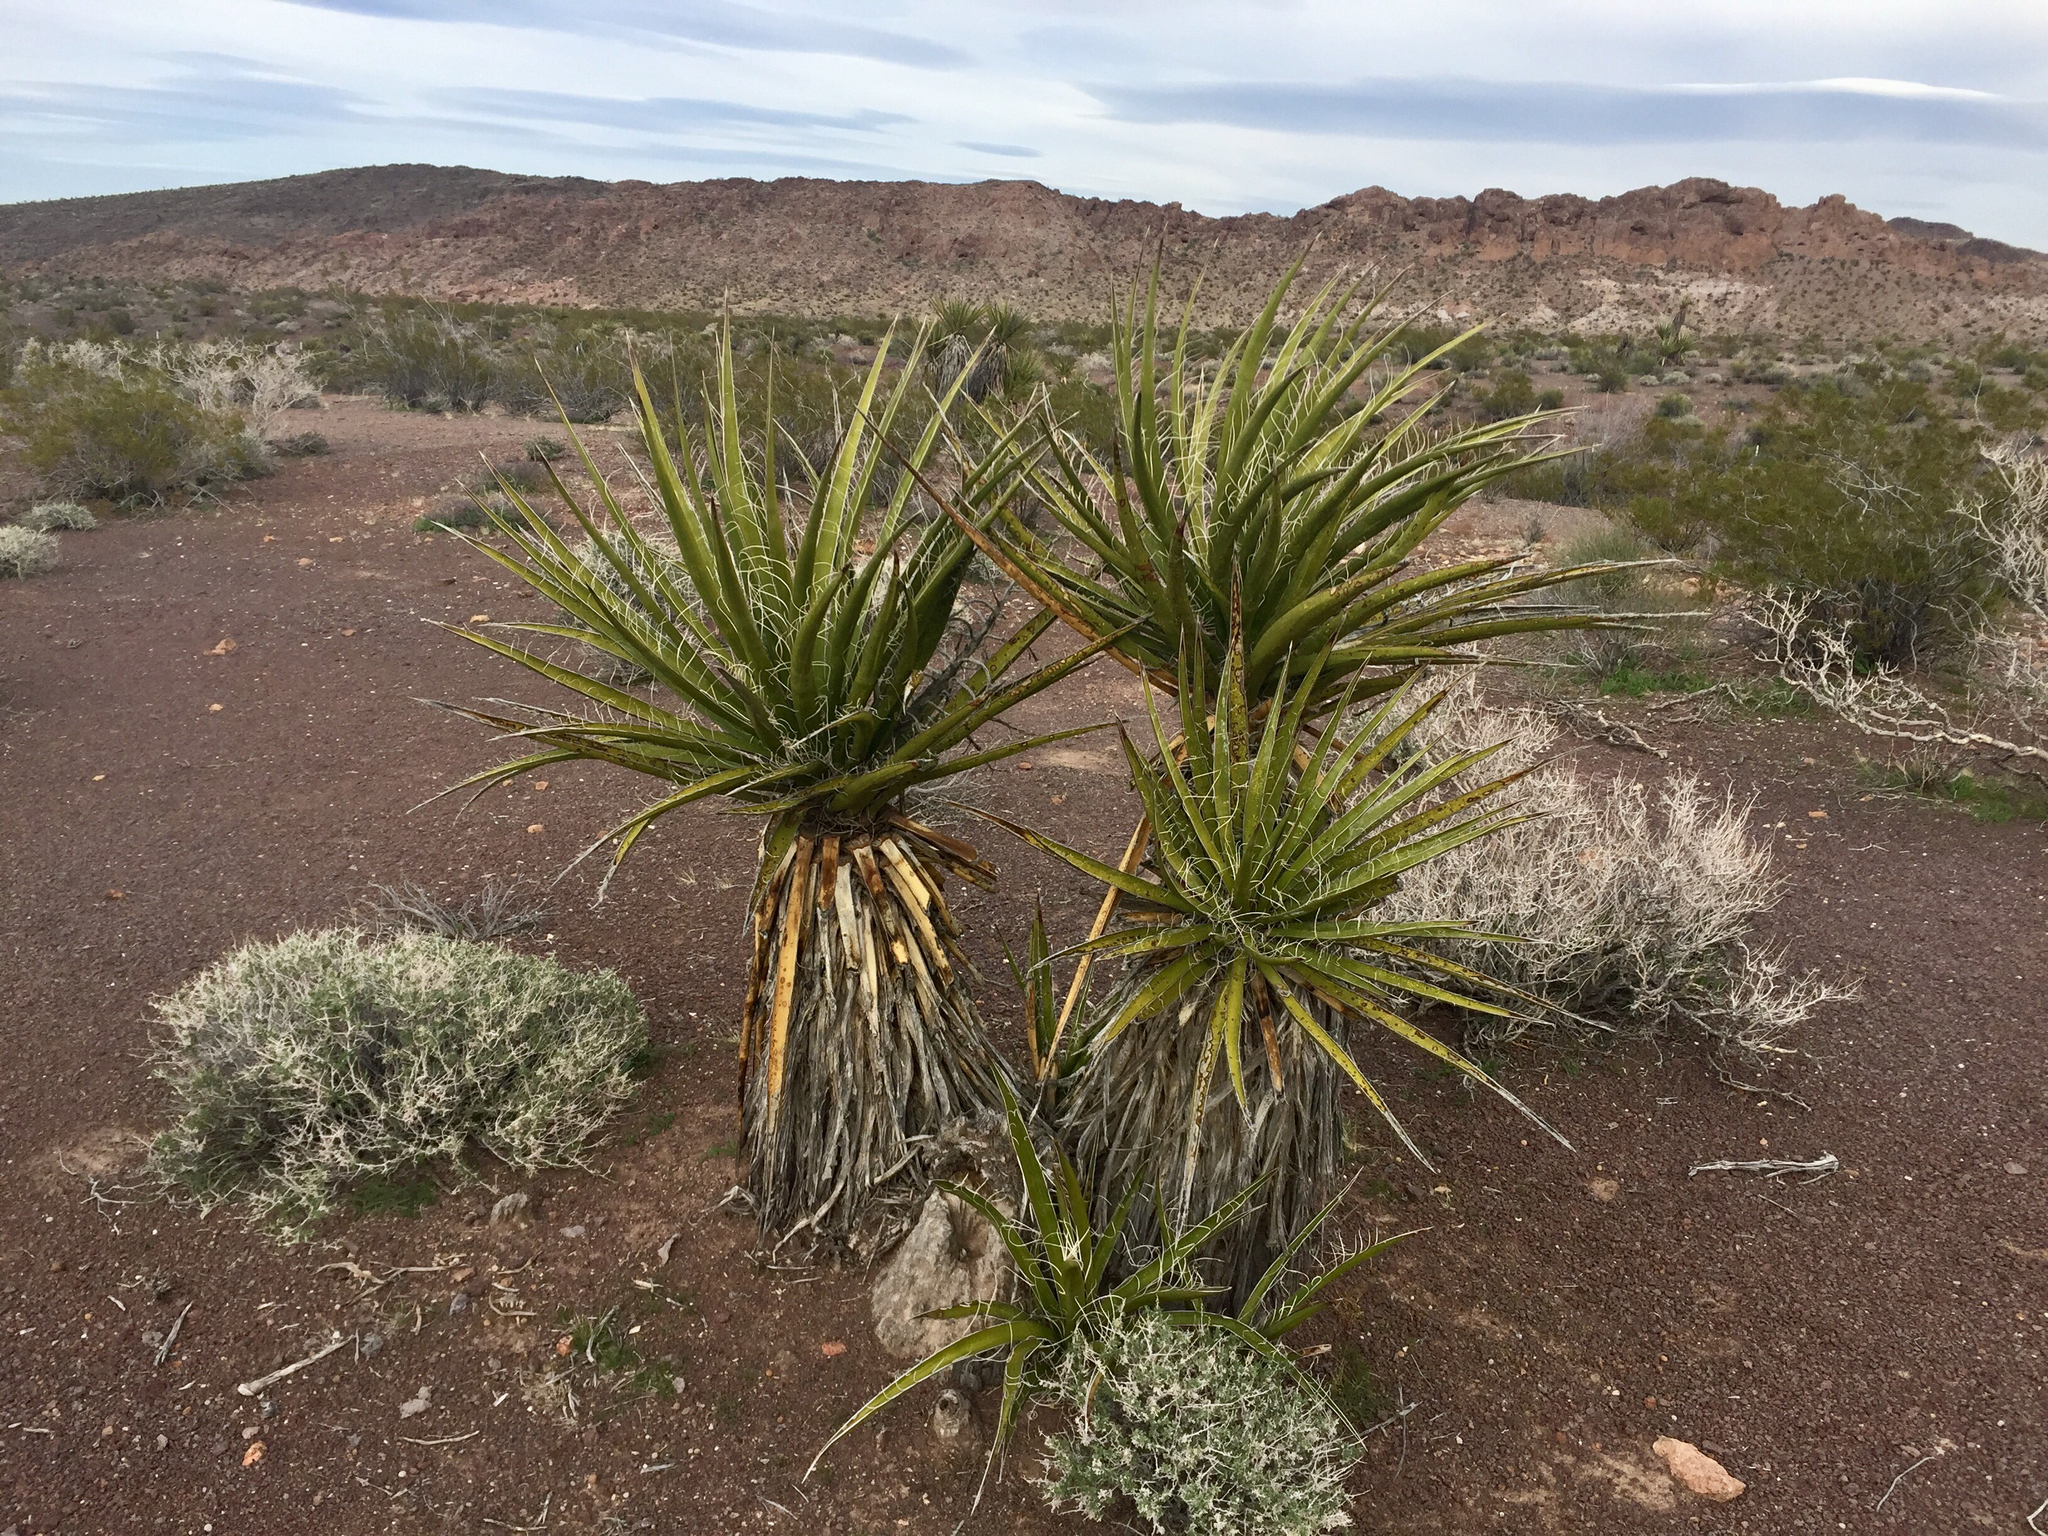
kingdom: Plantae
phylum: Tracheophyta
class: Liliopsida
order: Asparagales
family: Asparagaceae
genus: Yucca
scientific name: Yucca schidigera
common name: Mojave yucca
